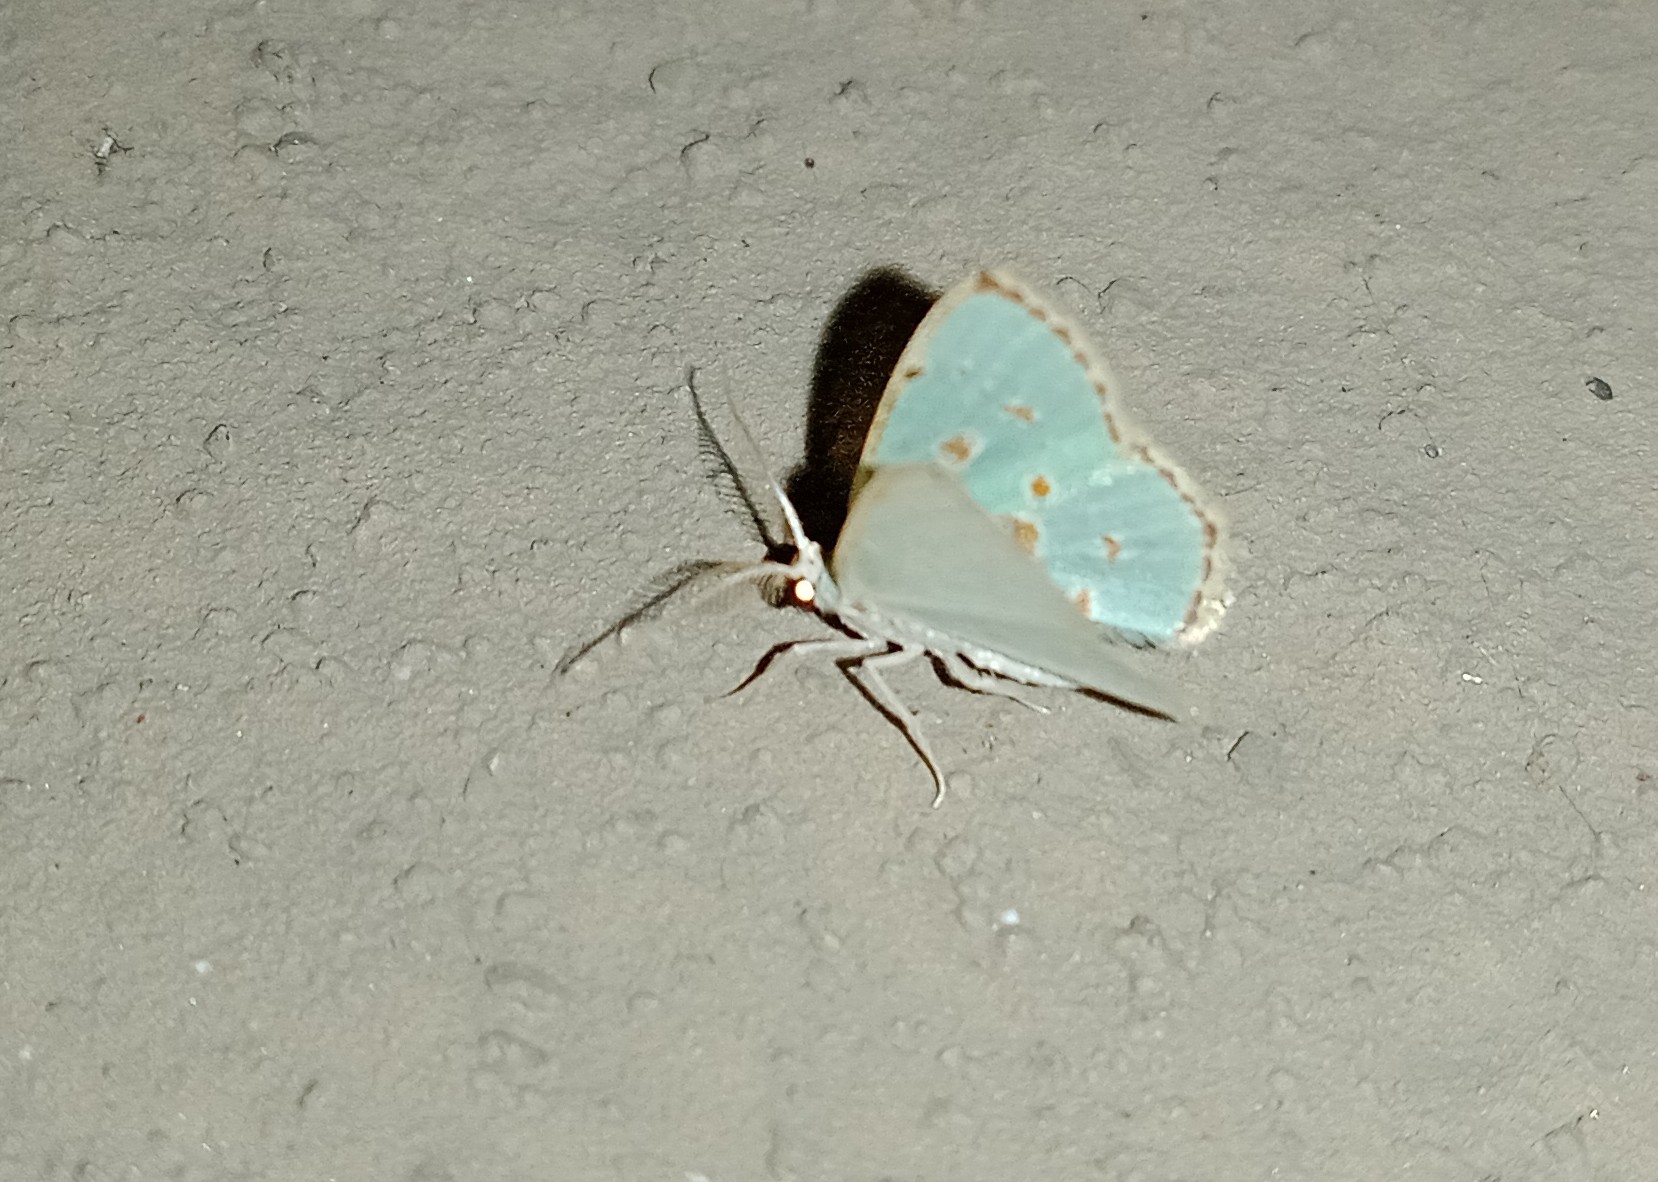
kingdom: Animalia
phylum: Arthropoda
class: Insecta
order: Lepidoptera
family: Geometridae
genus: Comostola
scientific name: Comostola laesaria
